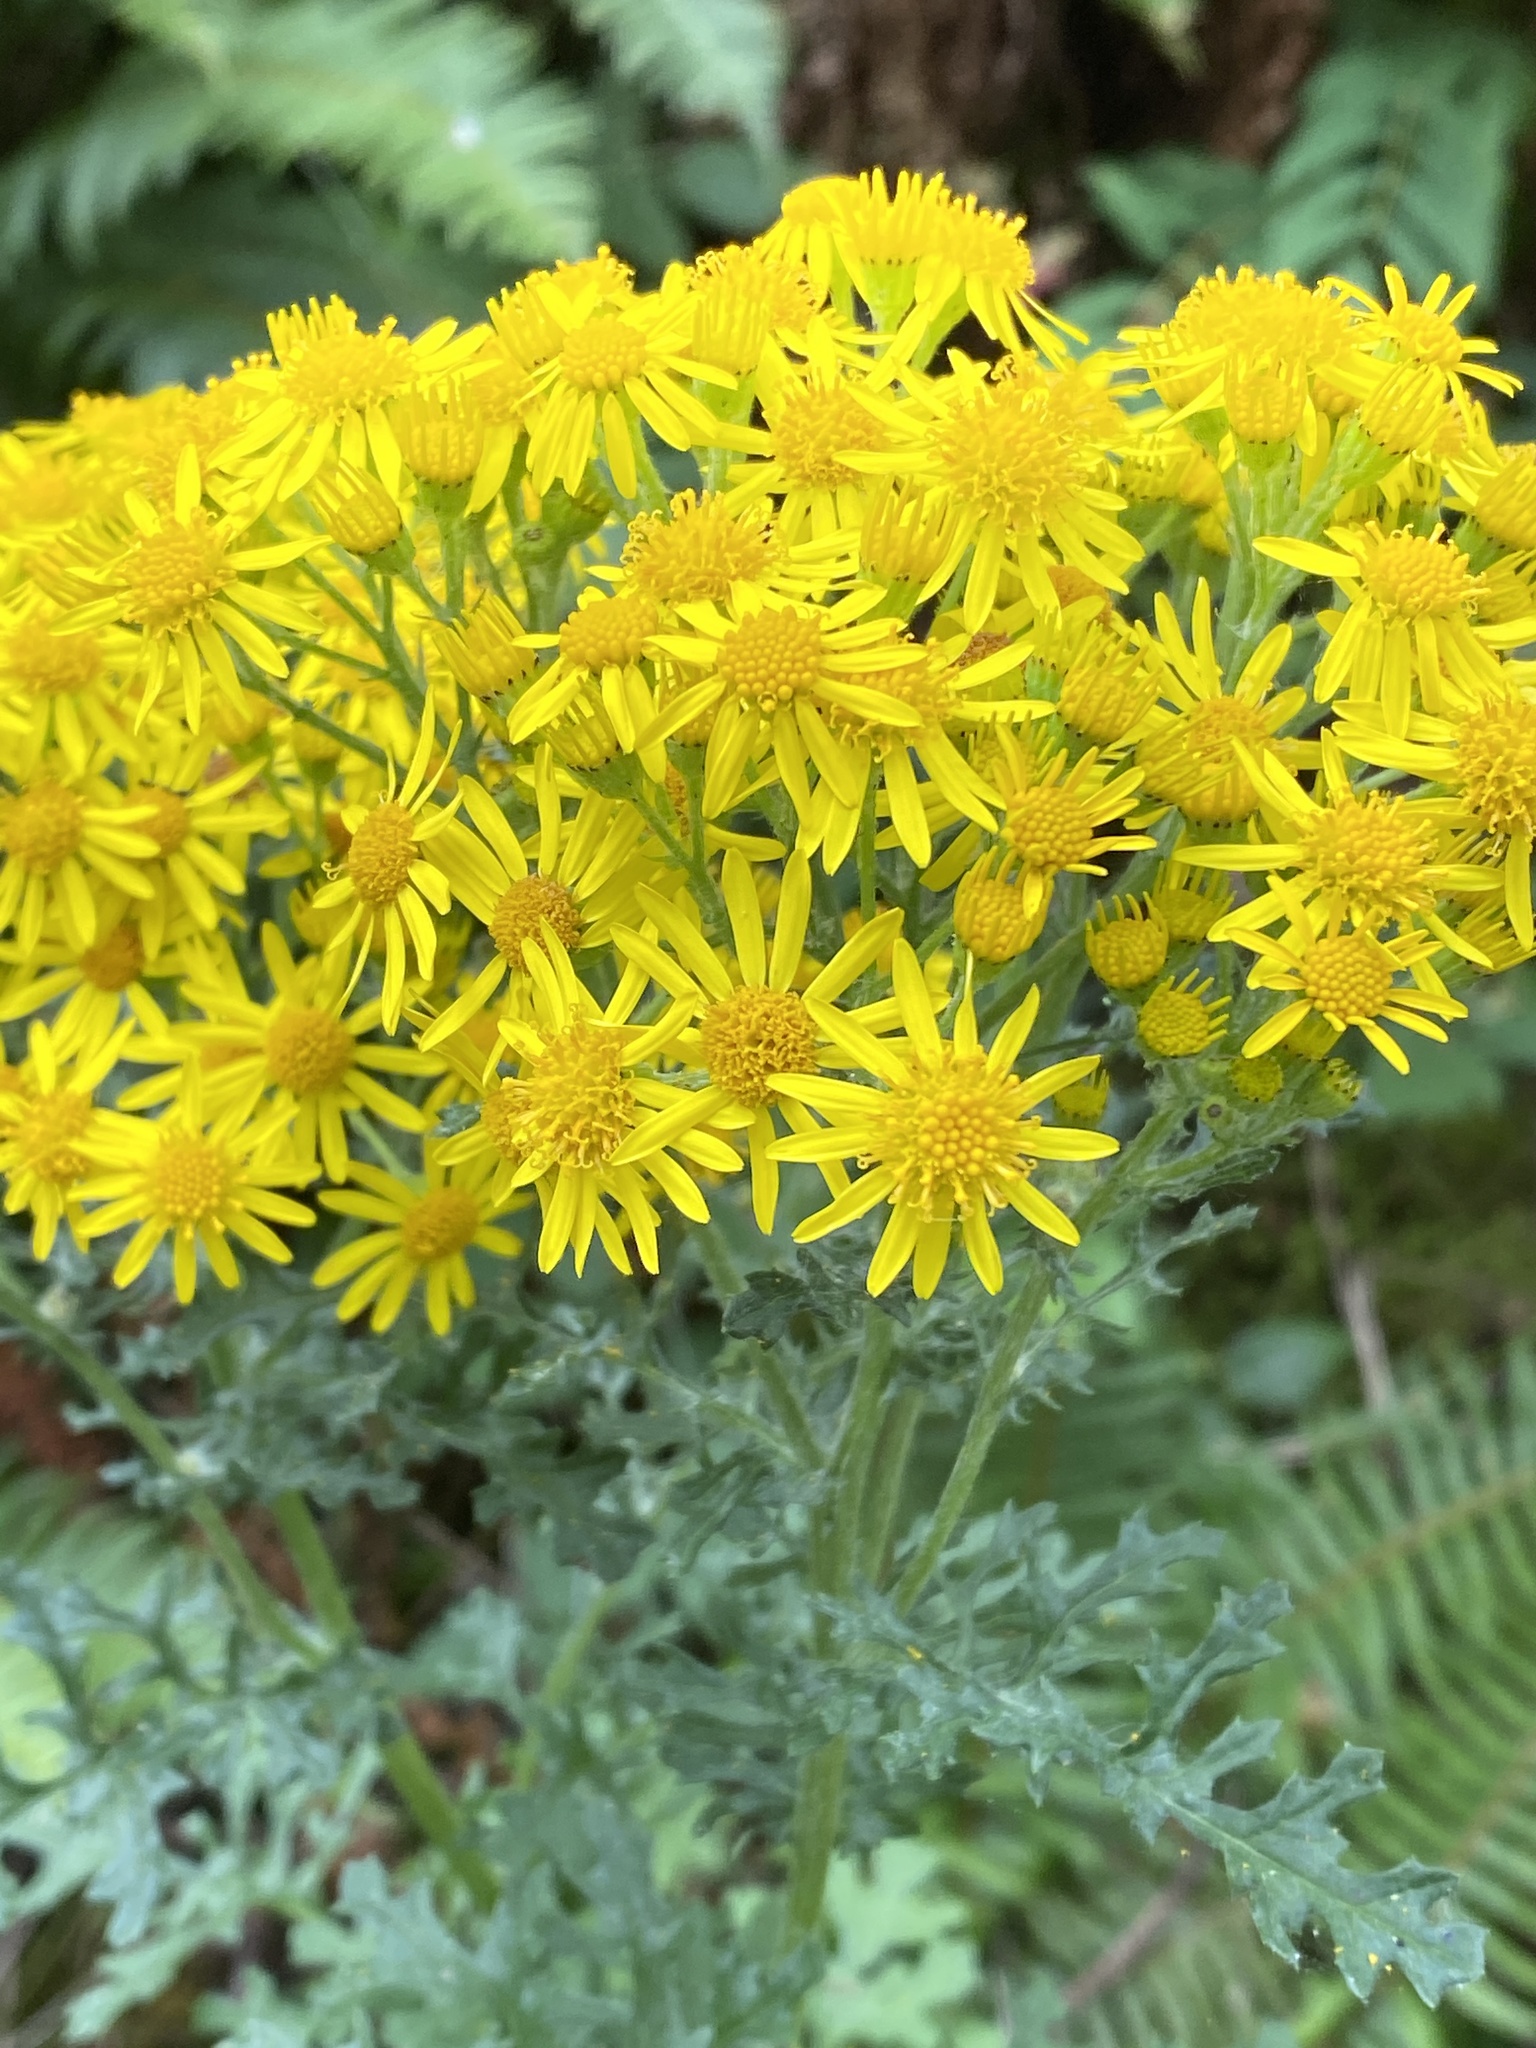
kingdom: Plantae
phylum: Tracheophyta
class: Magnoliopsida
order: Asterales
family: Asteraceae
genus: Jacobaea
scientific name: Jacobaea vulgaris
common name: Stinking willie
